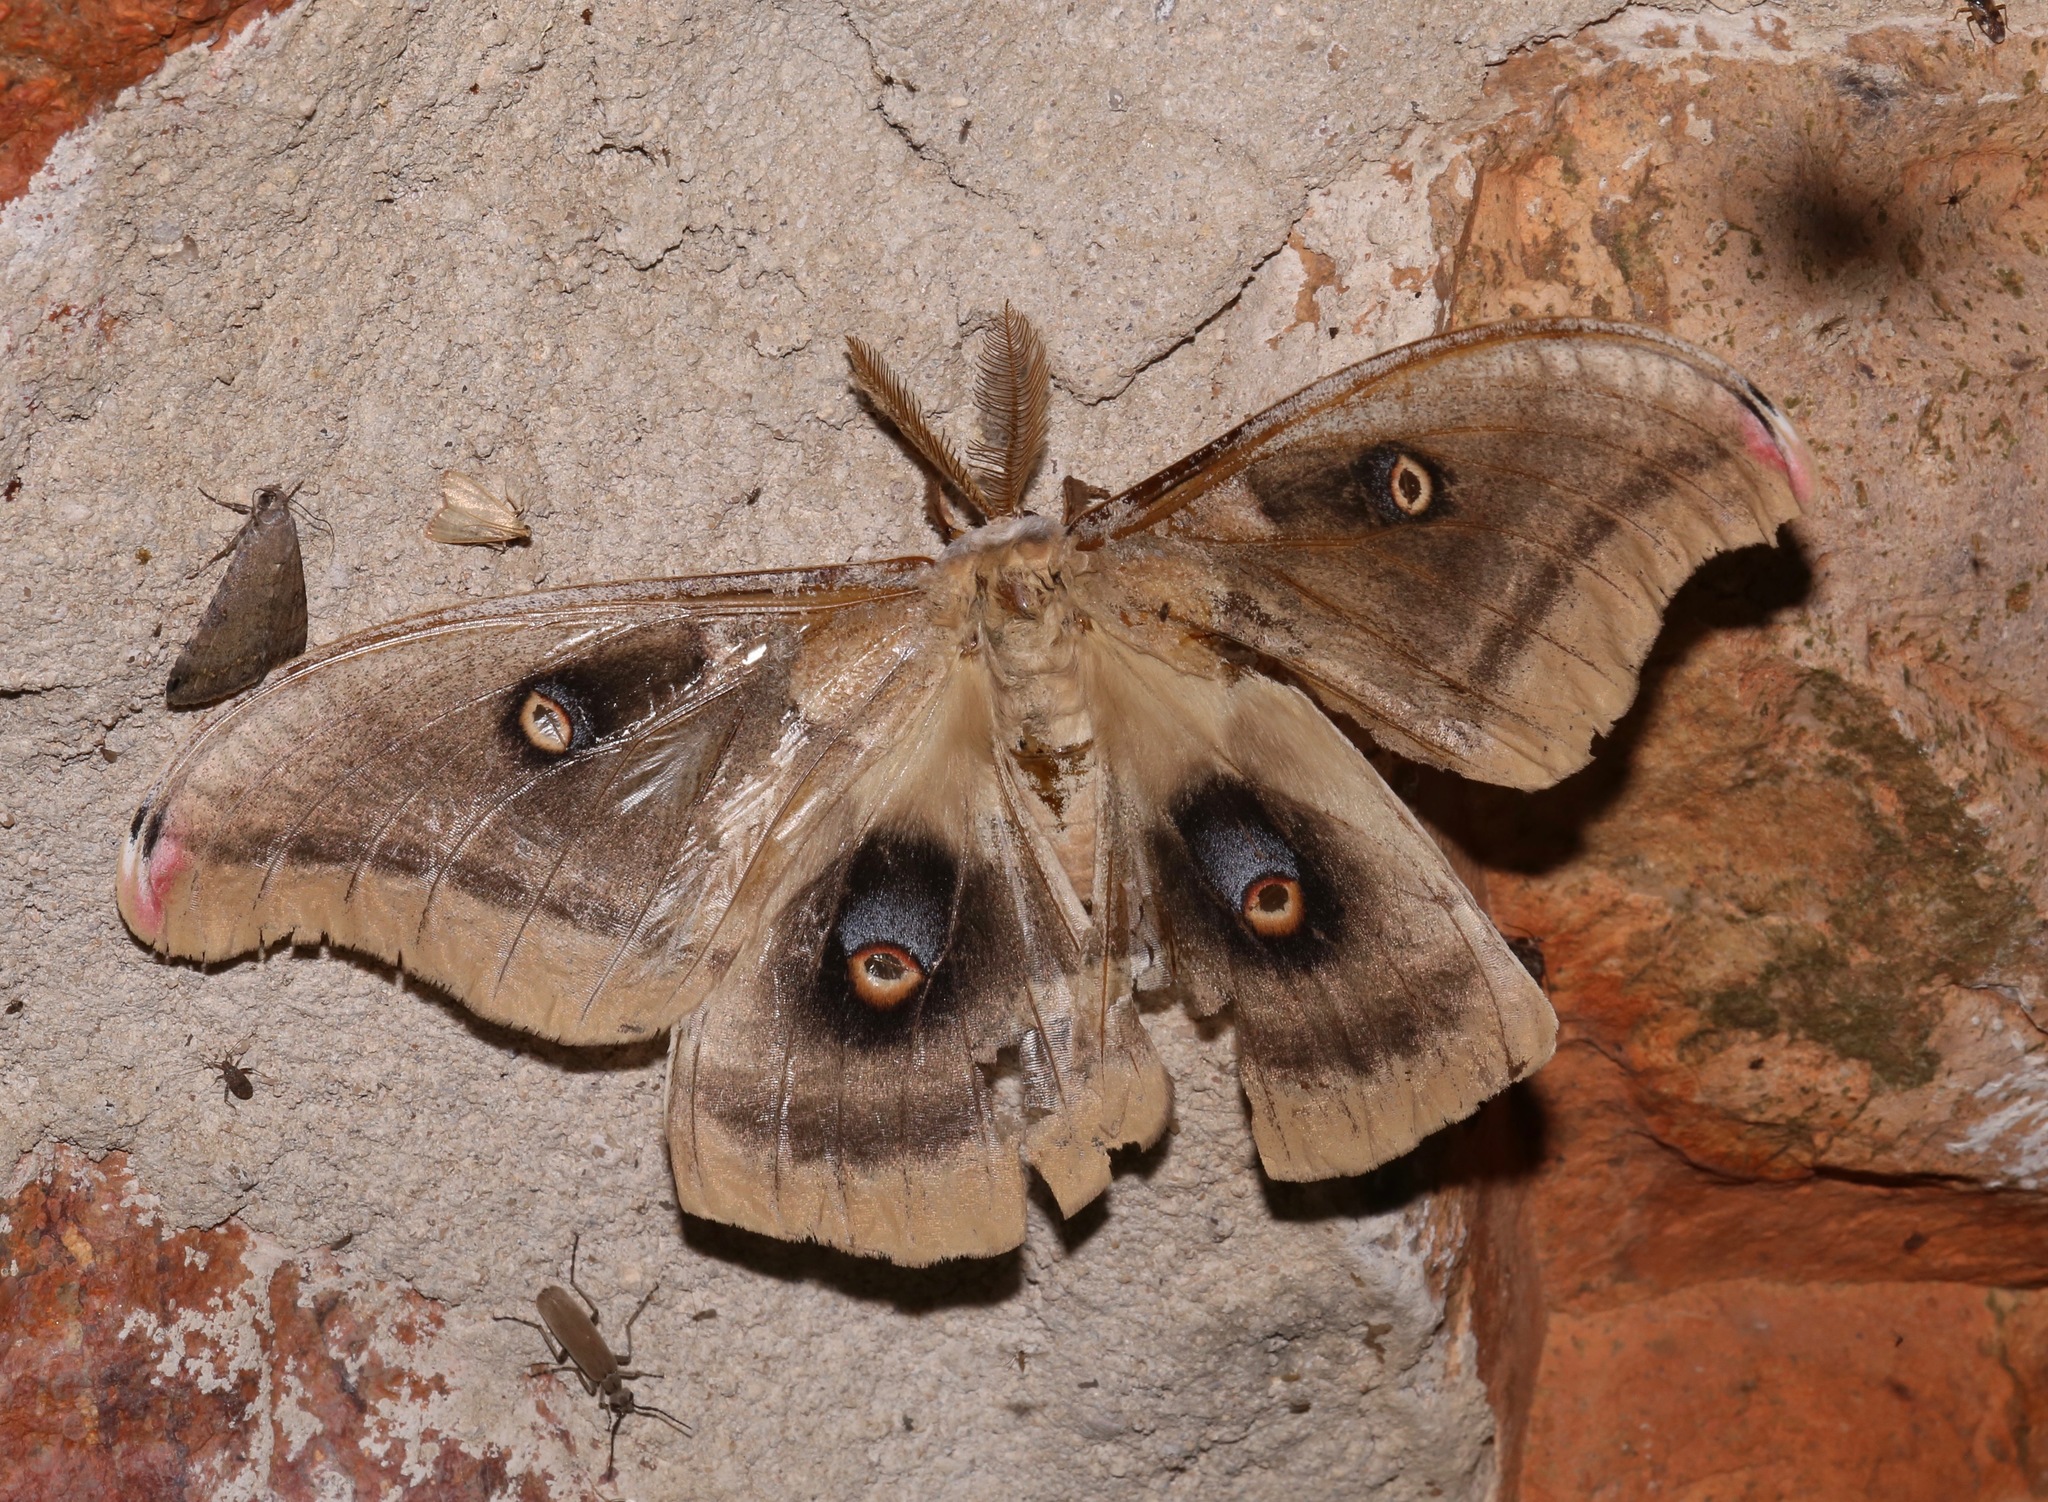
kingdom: Animalia
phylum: Arthropoda
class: Insecta
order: Lepidoptera
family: Saturniidae
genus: Antheraea
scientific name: Antheraea oculea
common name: Arizona polyphemus moth
